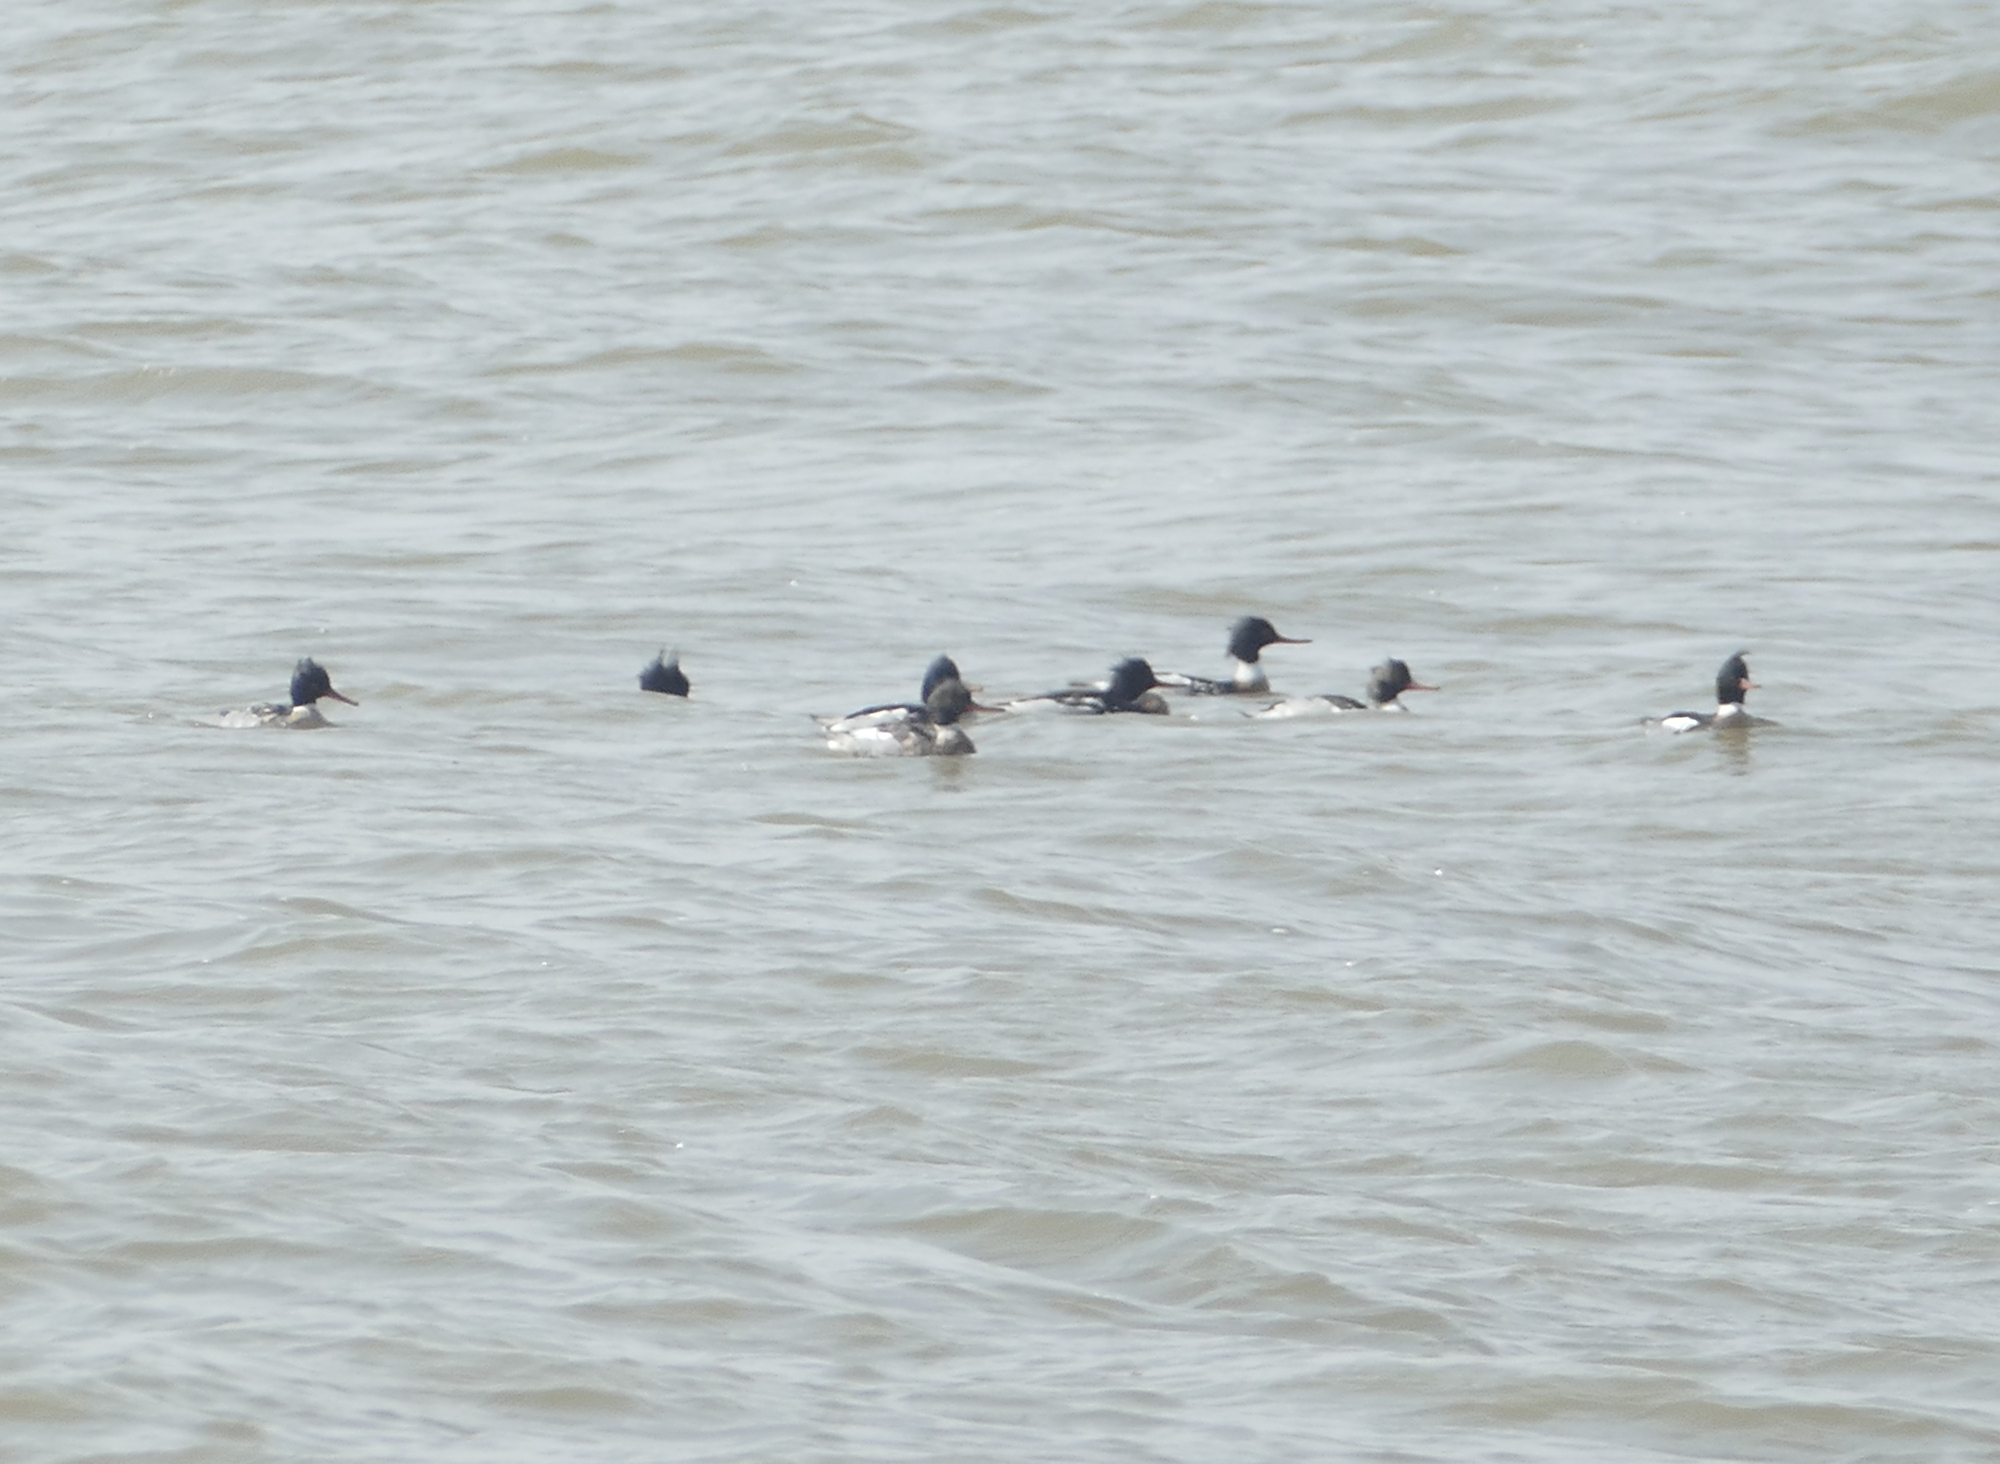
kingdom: Animalia
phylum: Chordata
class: Aves
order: Anseriformes
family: Anatidae
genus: Mergus
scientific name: Mergus serrator
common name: Red-breasted merganser
